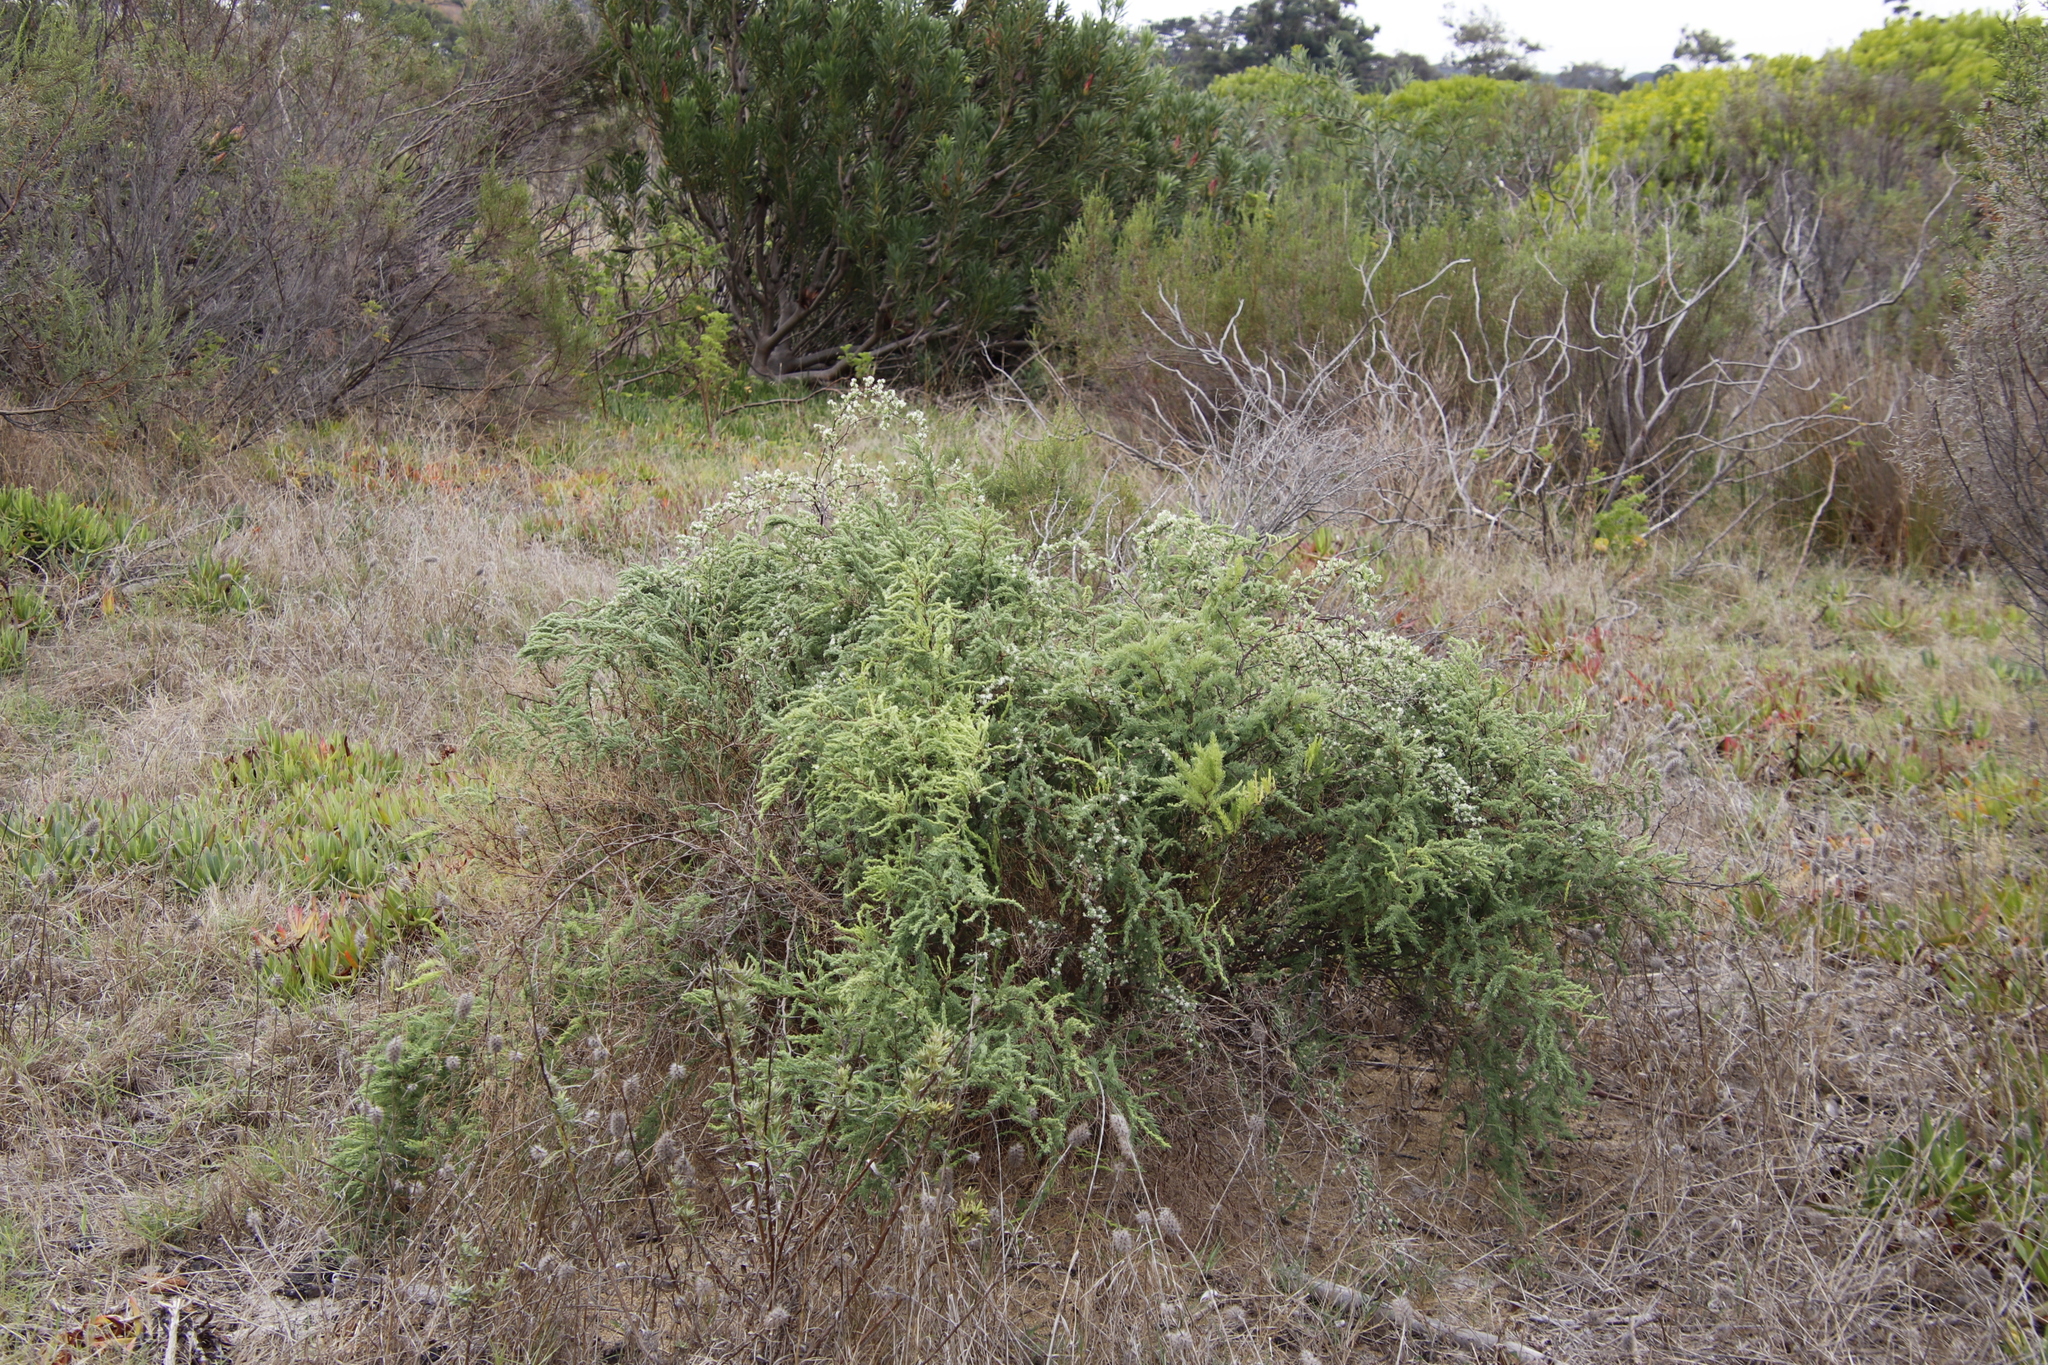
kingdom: Plantae
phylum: Tracheophyta
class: Liliopsida
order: Asparagales
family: Asparagaceae
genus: Asparagus
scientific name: Asparagus rubicundus
